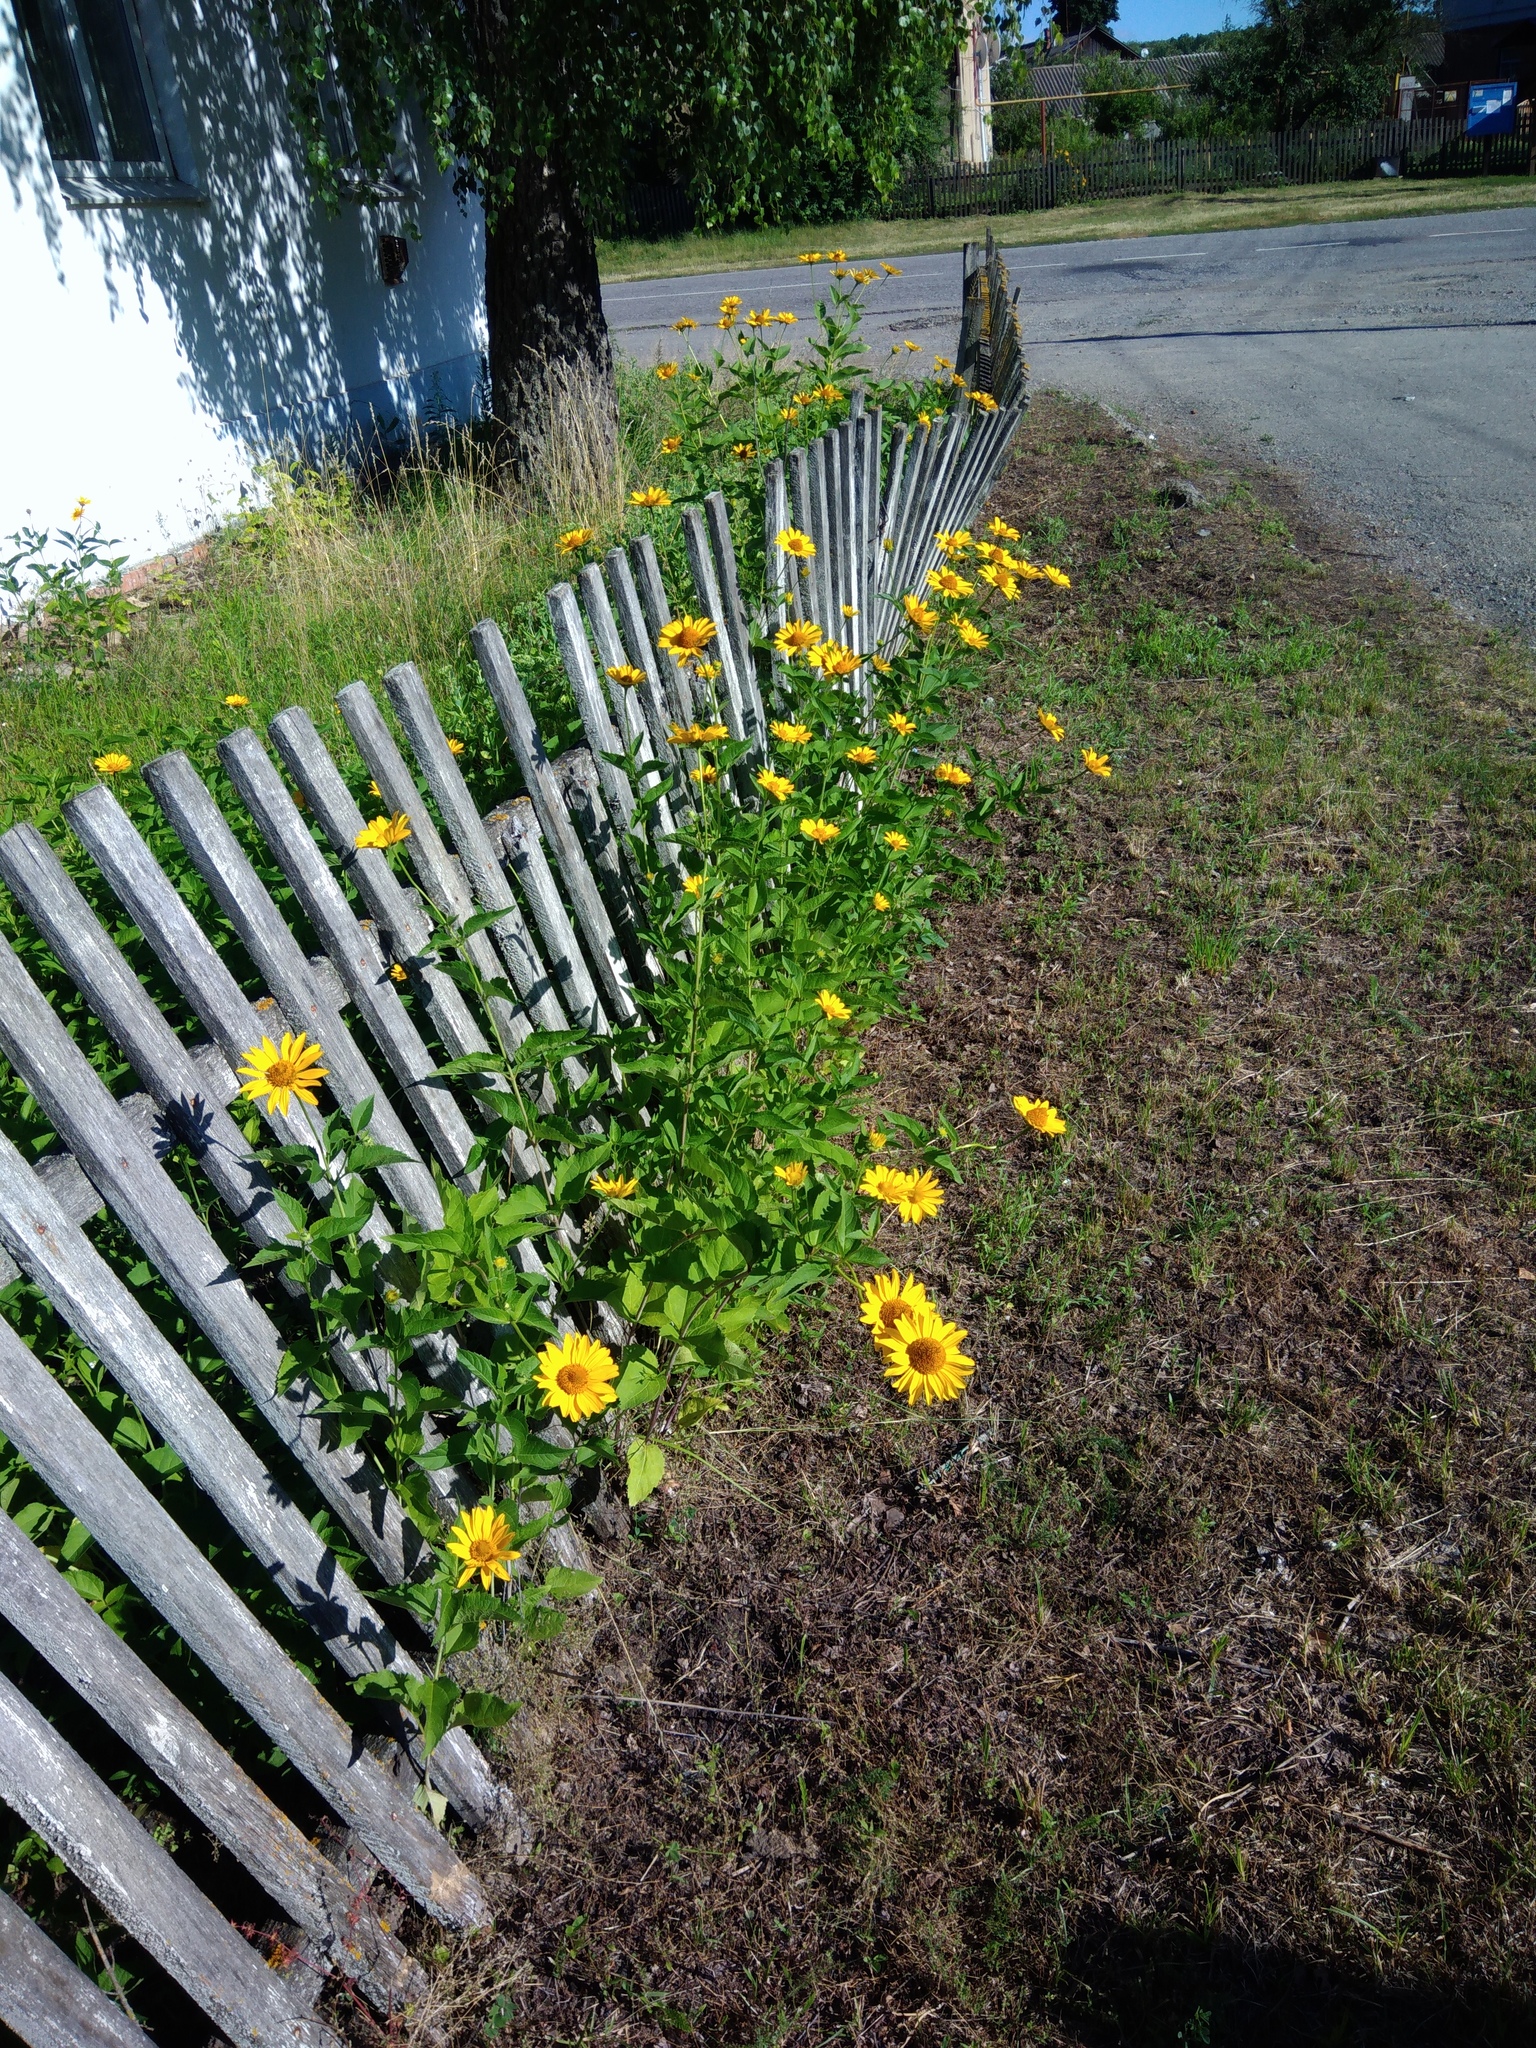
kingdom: Plantae
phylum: Tracheophyta
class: Magnoliopsida
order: Asterales
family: Asteraceae
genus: Heliopsis
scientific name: Heliopsis helianthoides
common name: False sunflower
